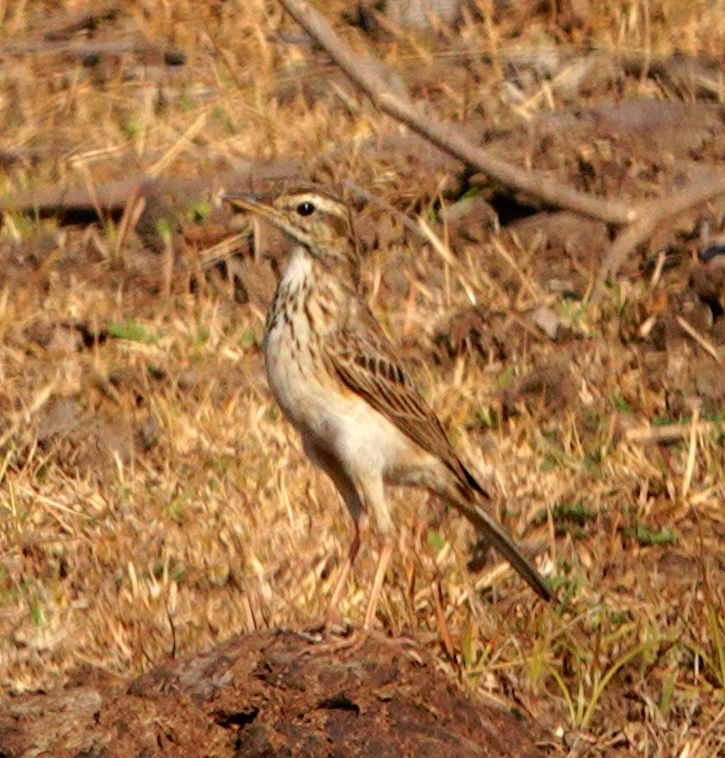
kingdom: Animalia
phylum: Chordata
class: Aves
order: Passeriformes
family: Motacillidae
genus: Anthus
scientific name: Anthus rufulus
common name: Paddyfield pipit
